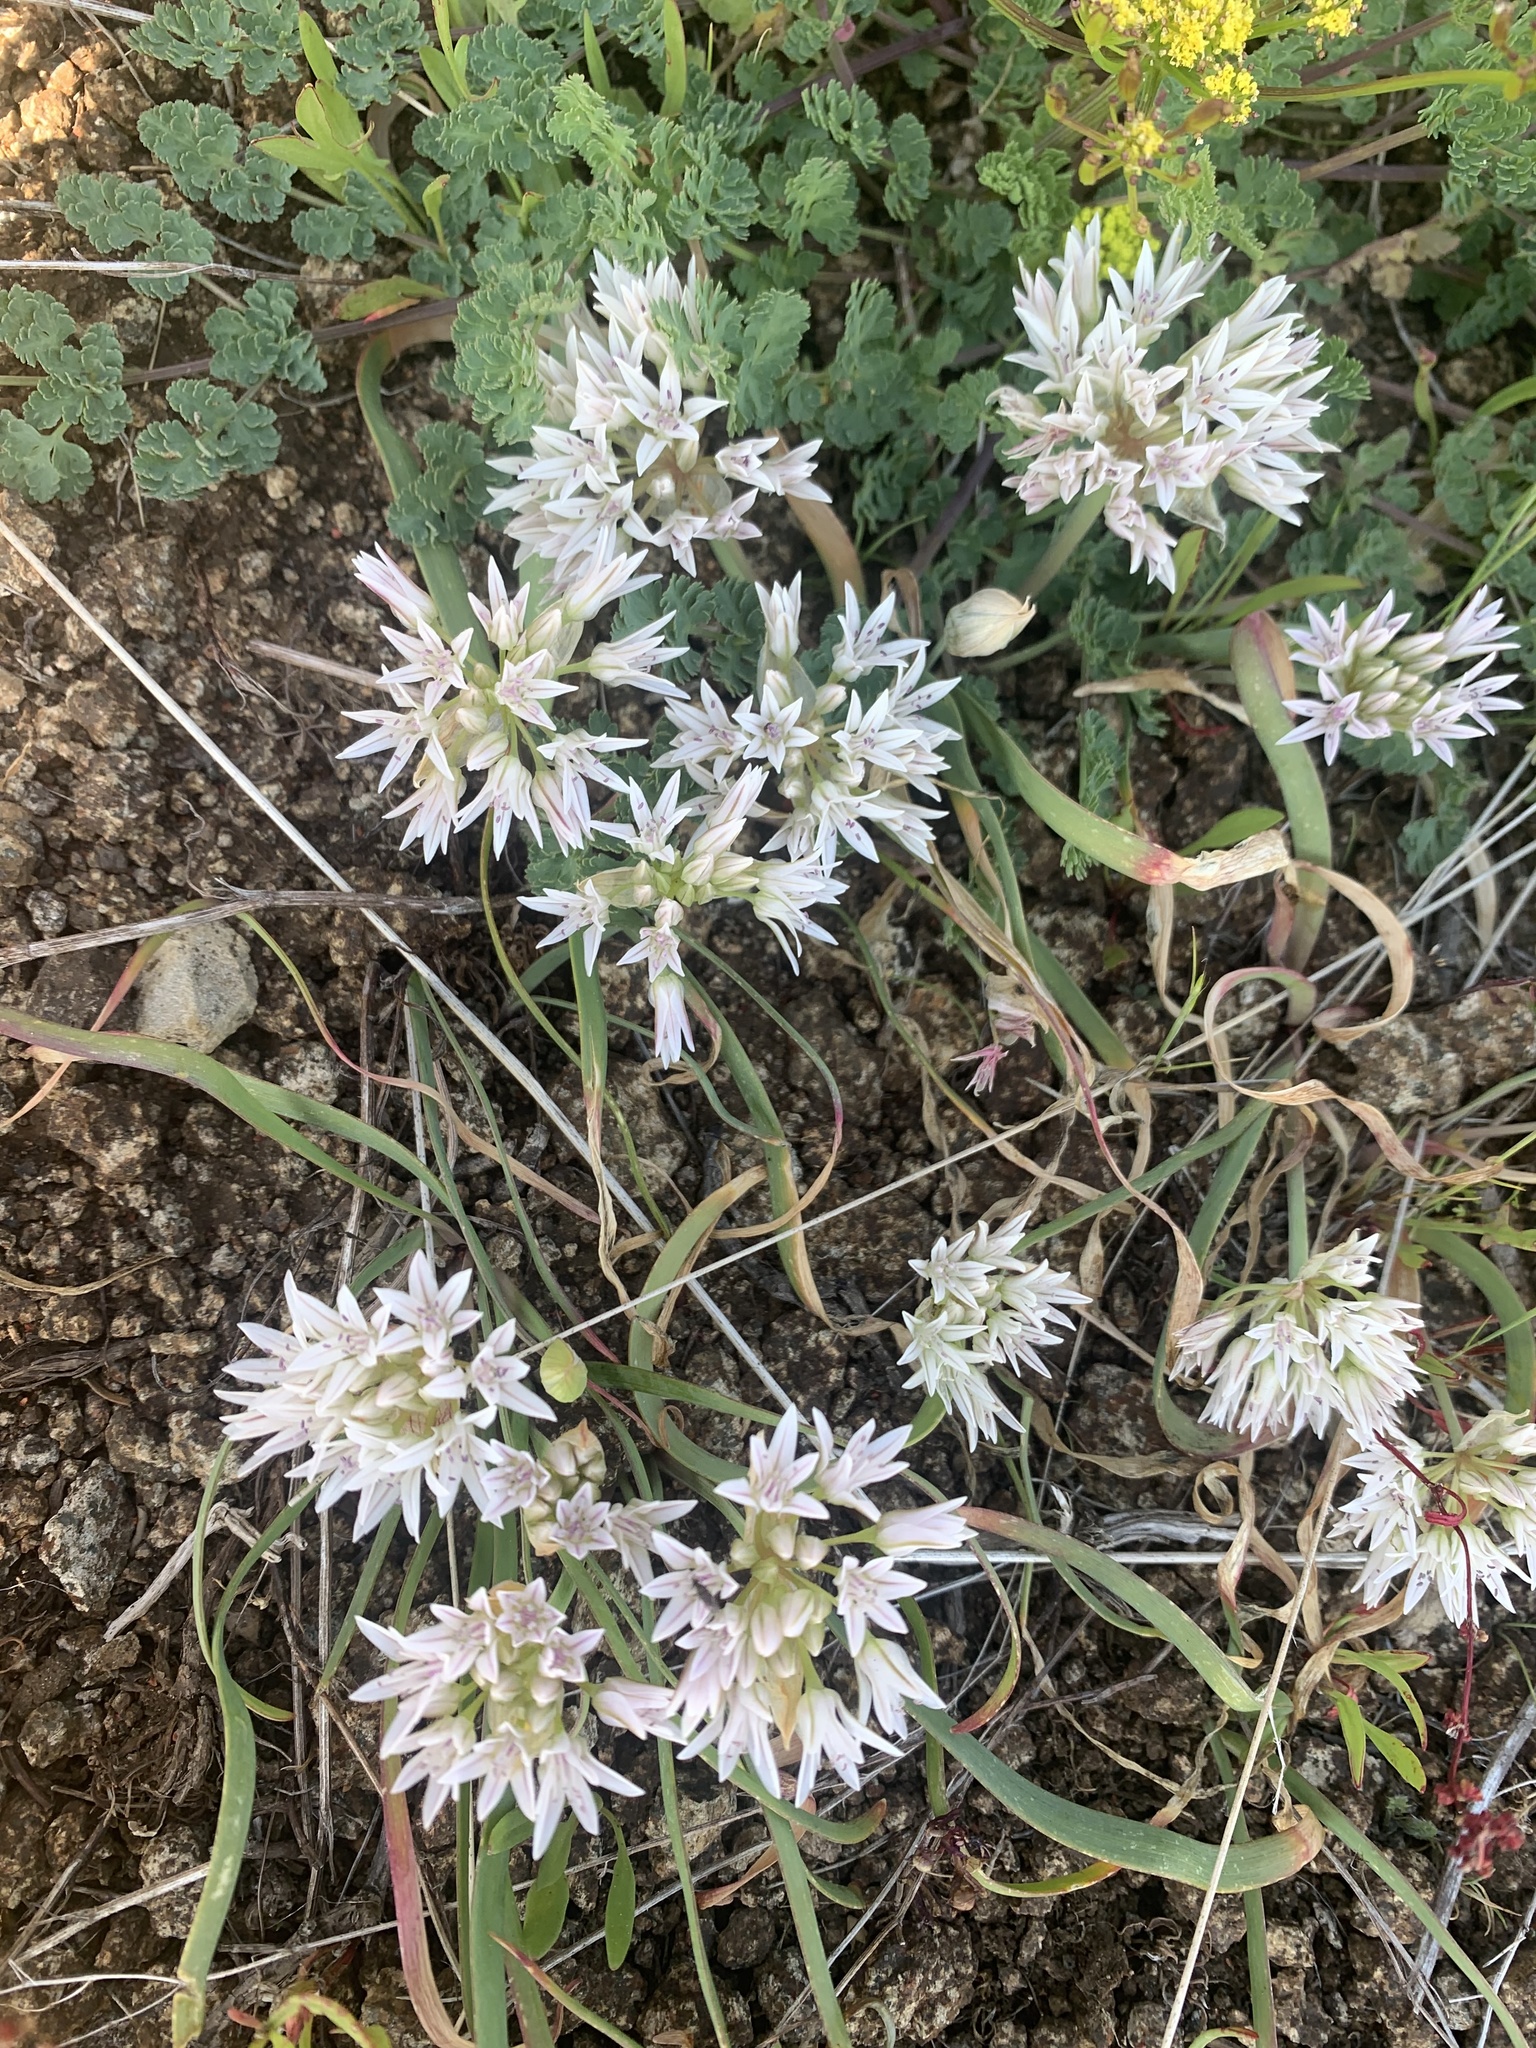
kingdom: Plantae
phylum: Tracheophyta
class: Liliopsida
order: Asparagales
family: Amaryllidaceae
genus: Allium
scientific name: Allium crenulatum
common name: Olympic onion
